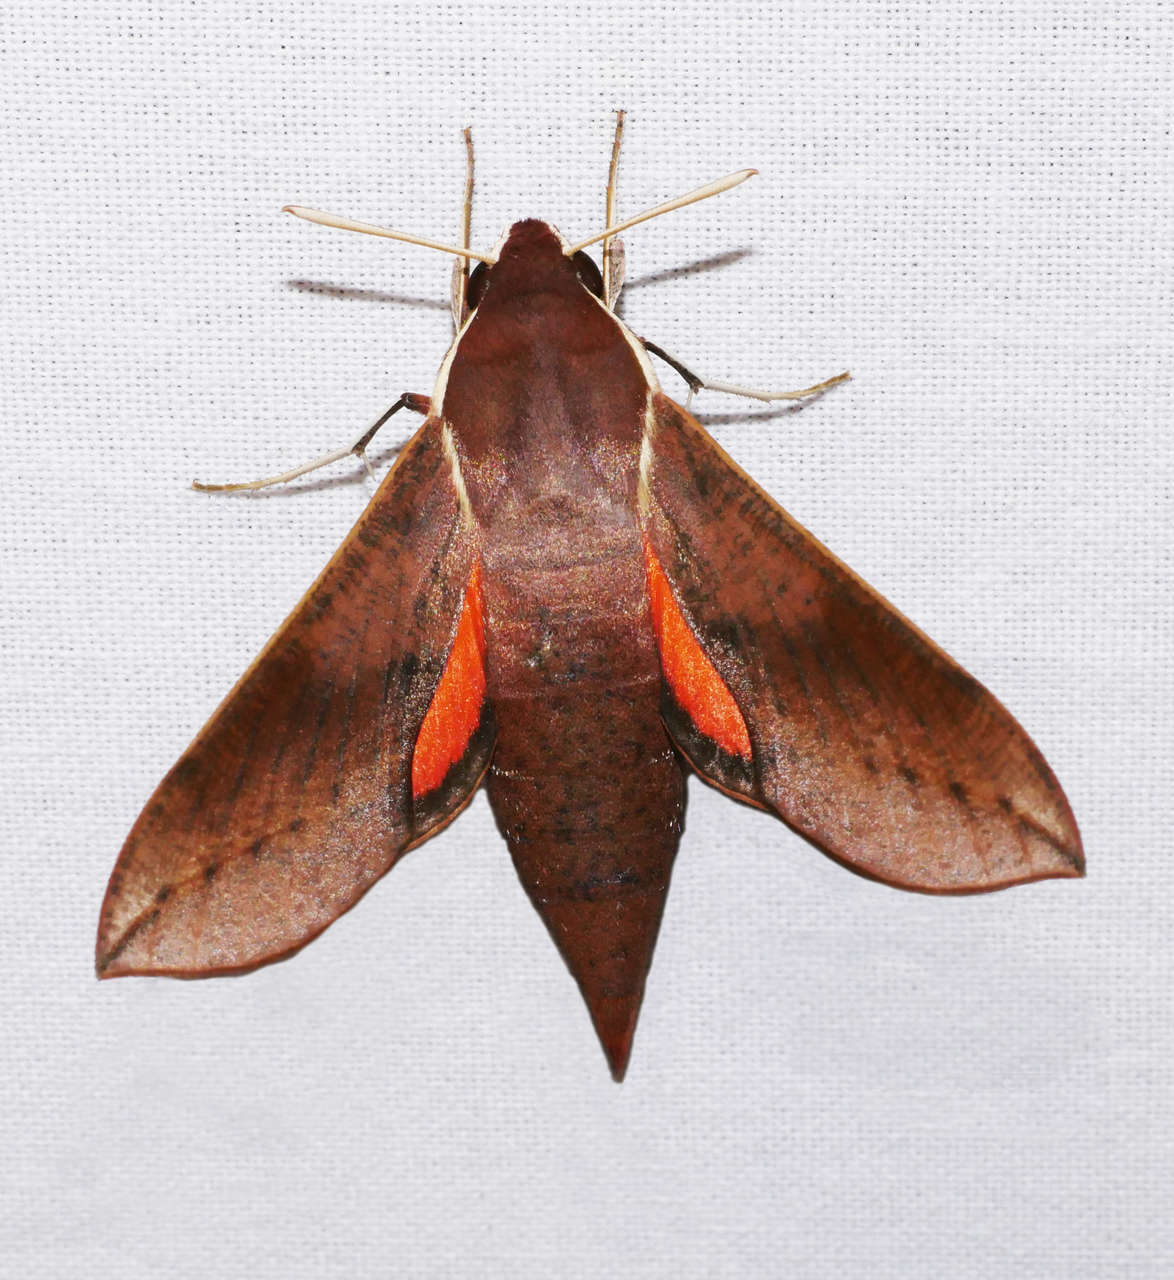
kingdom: Animalia
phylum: Arthropoda
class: Insecta
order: Lepidoptera
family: Sphingidae
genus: Hippotion
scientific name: Hippotion scrofa
